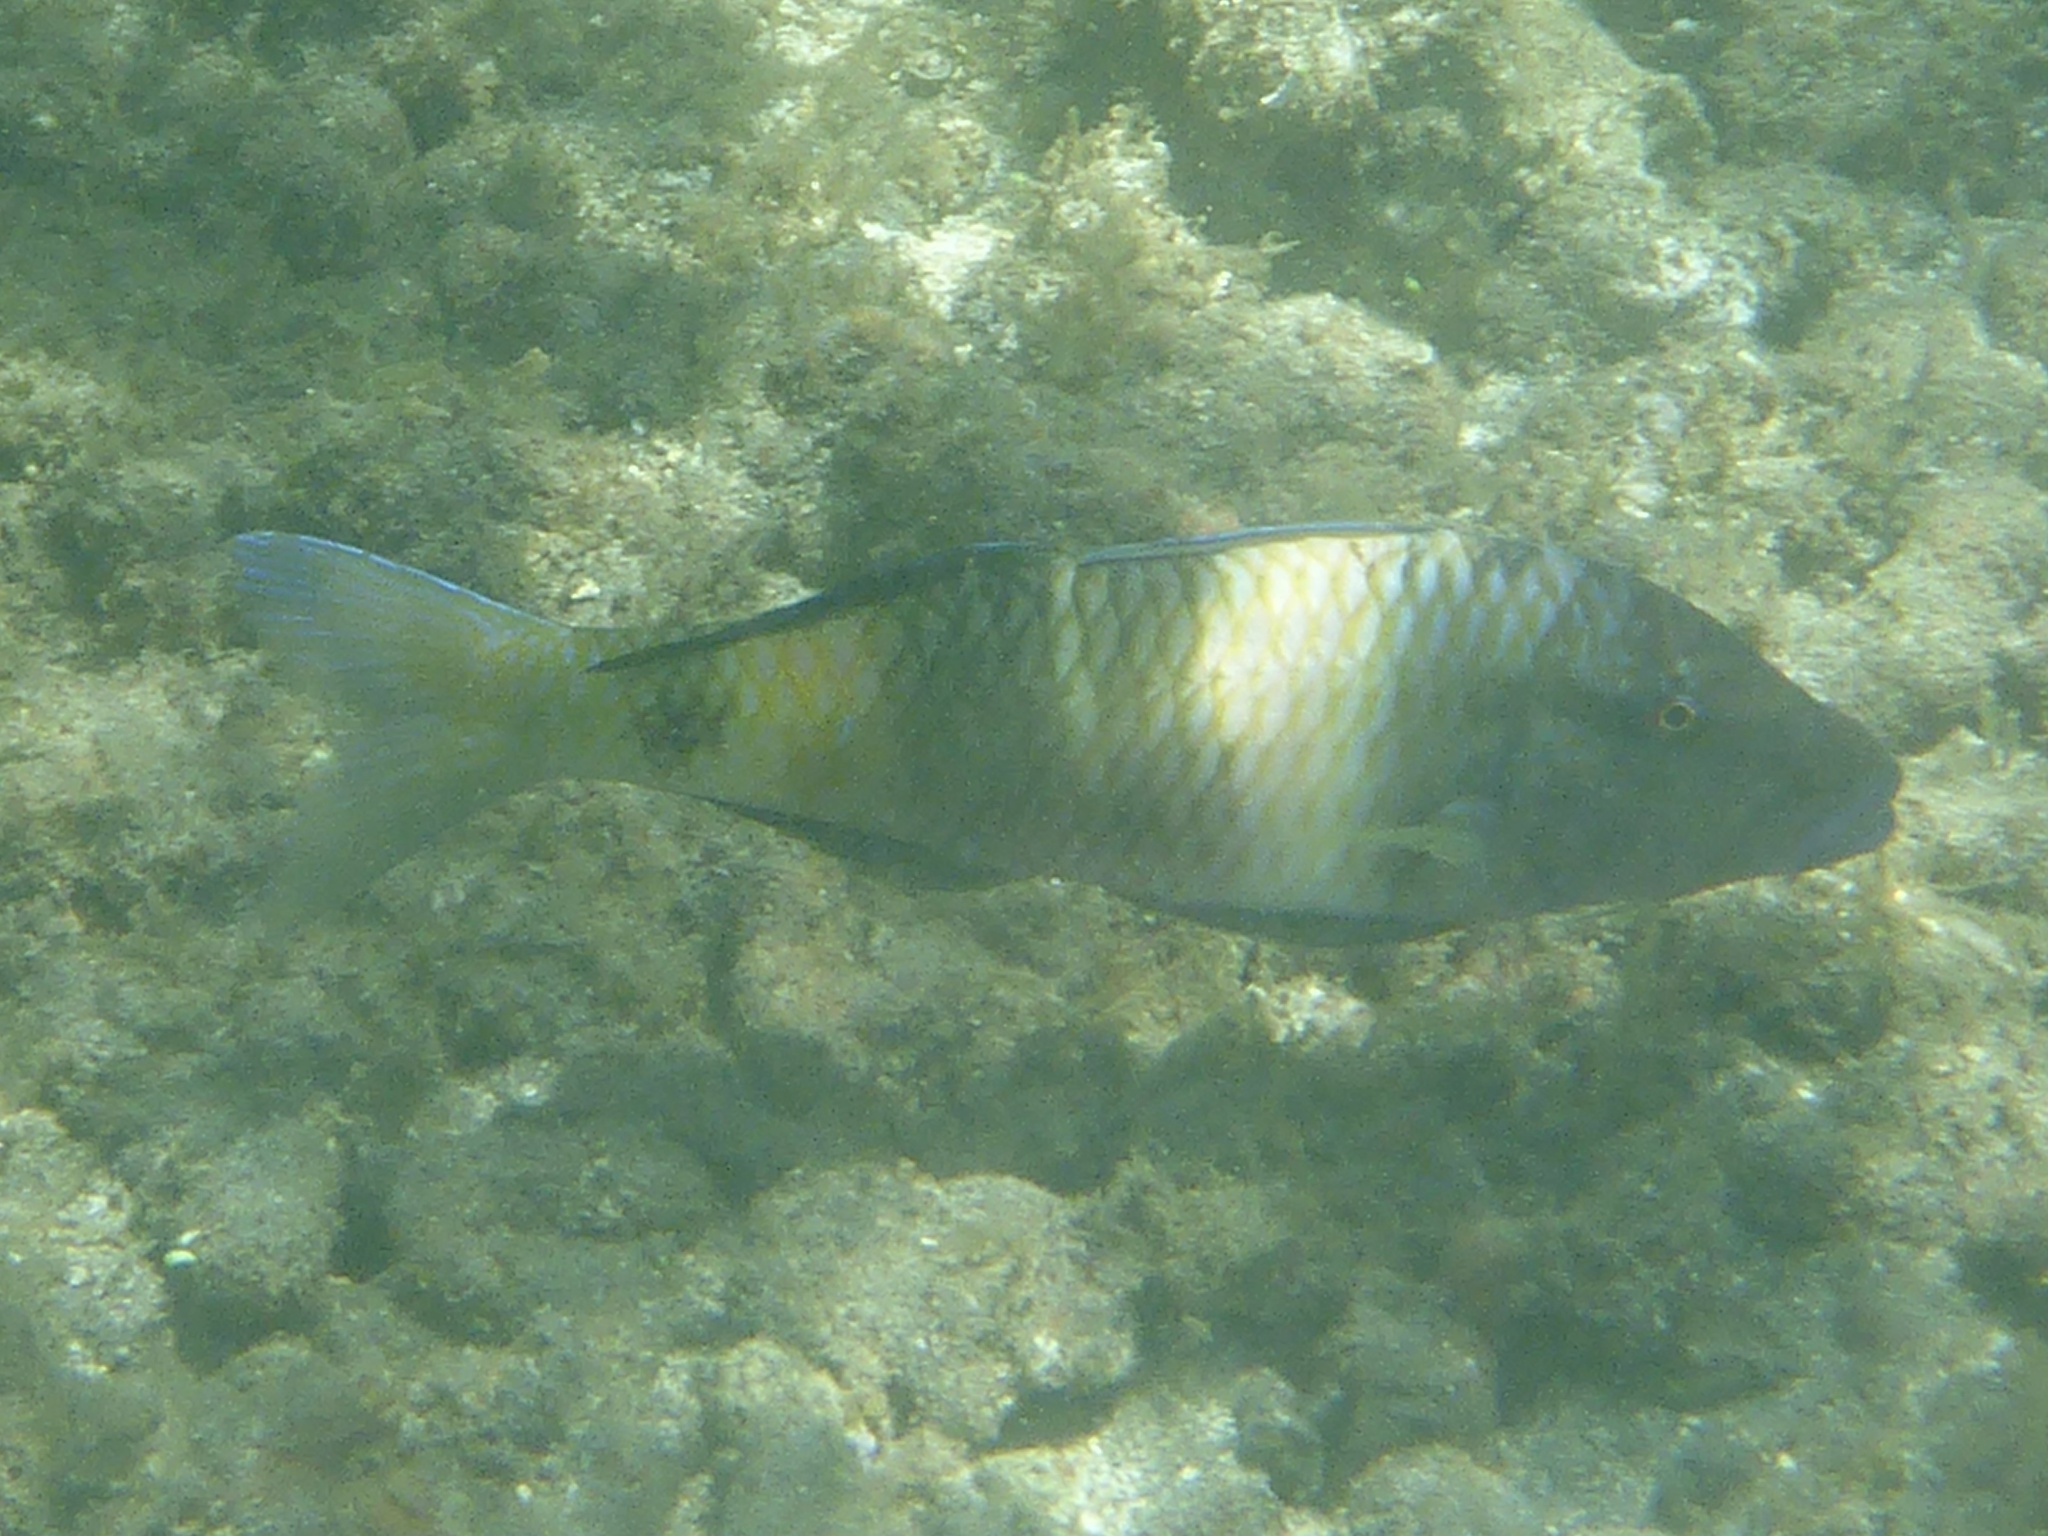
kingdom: Animalia
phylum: Chordata
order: Perciformes
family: Mullidae
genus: Parupeneus
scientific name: Parupeneus multifasciatus
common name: Manybar goatfish
